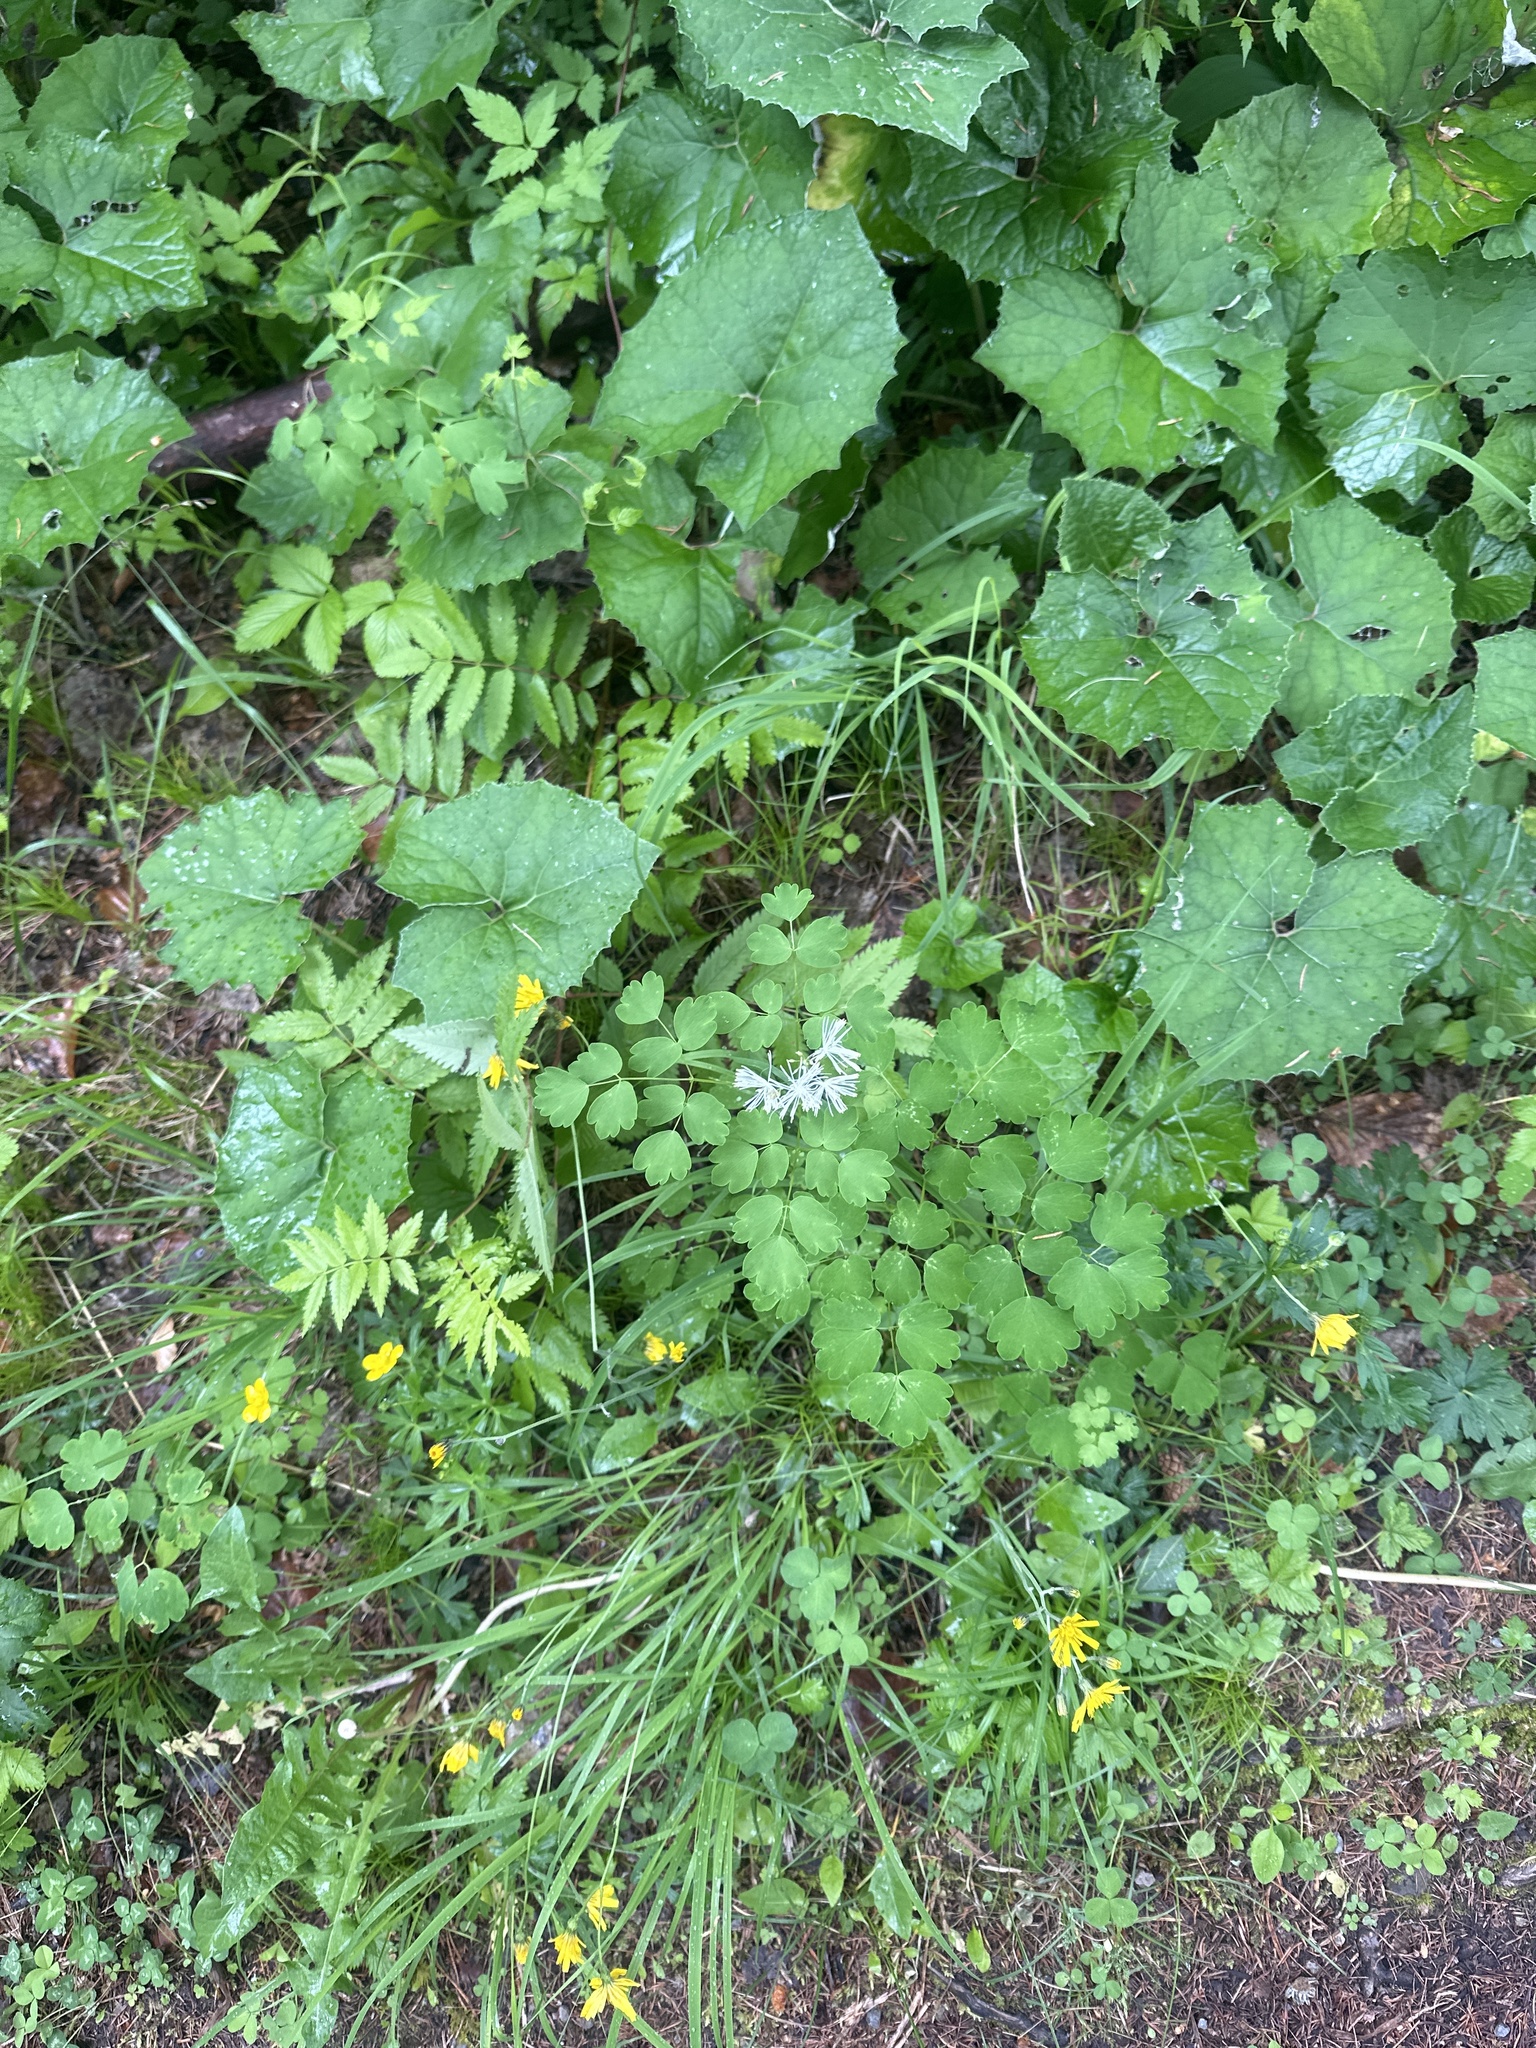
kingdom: Plantae
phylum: Tracheophyta
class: Magnoliopsida
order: Ranunculales
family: Ranunculaceae
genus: Thalictrum
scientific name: Thalictrum aquilegiifolium
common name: French meadow-rue
